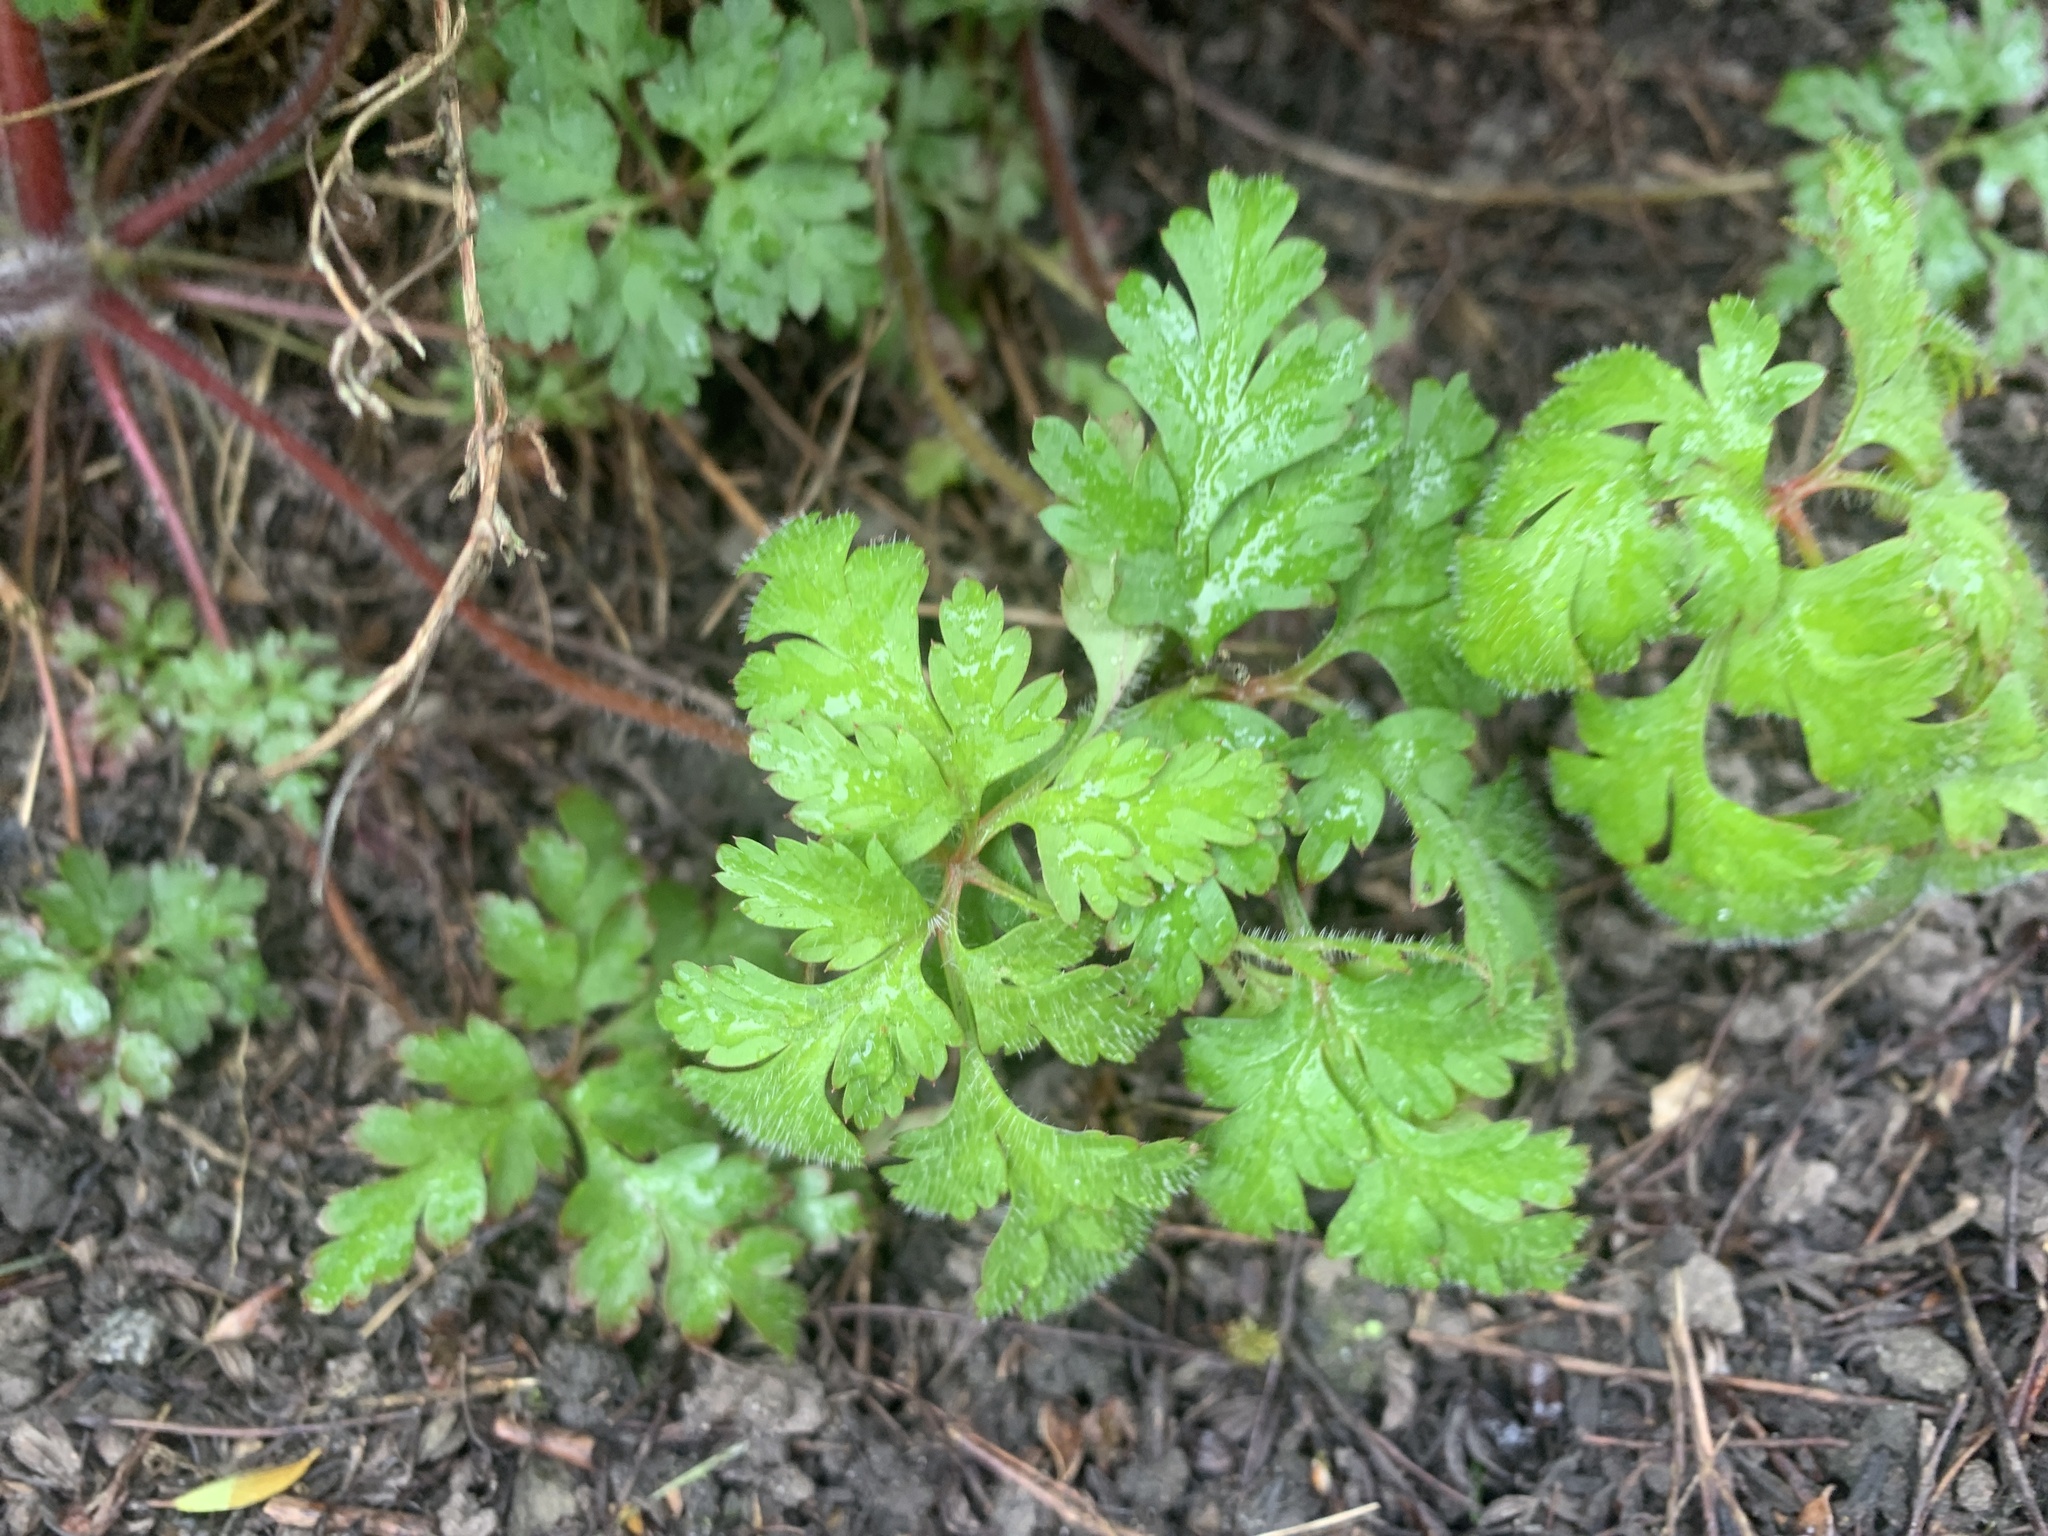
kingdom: Plantae
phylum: Tracheophyta
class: Magnoliopsida
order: Geraniales
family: Geraniaceae
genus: Geranium
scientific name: Geranium robertianum
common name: Herb-robert
